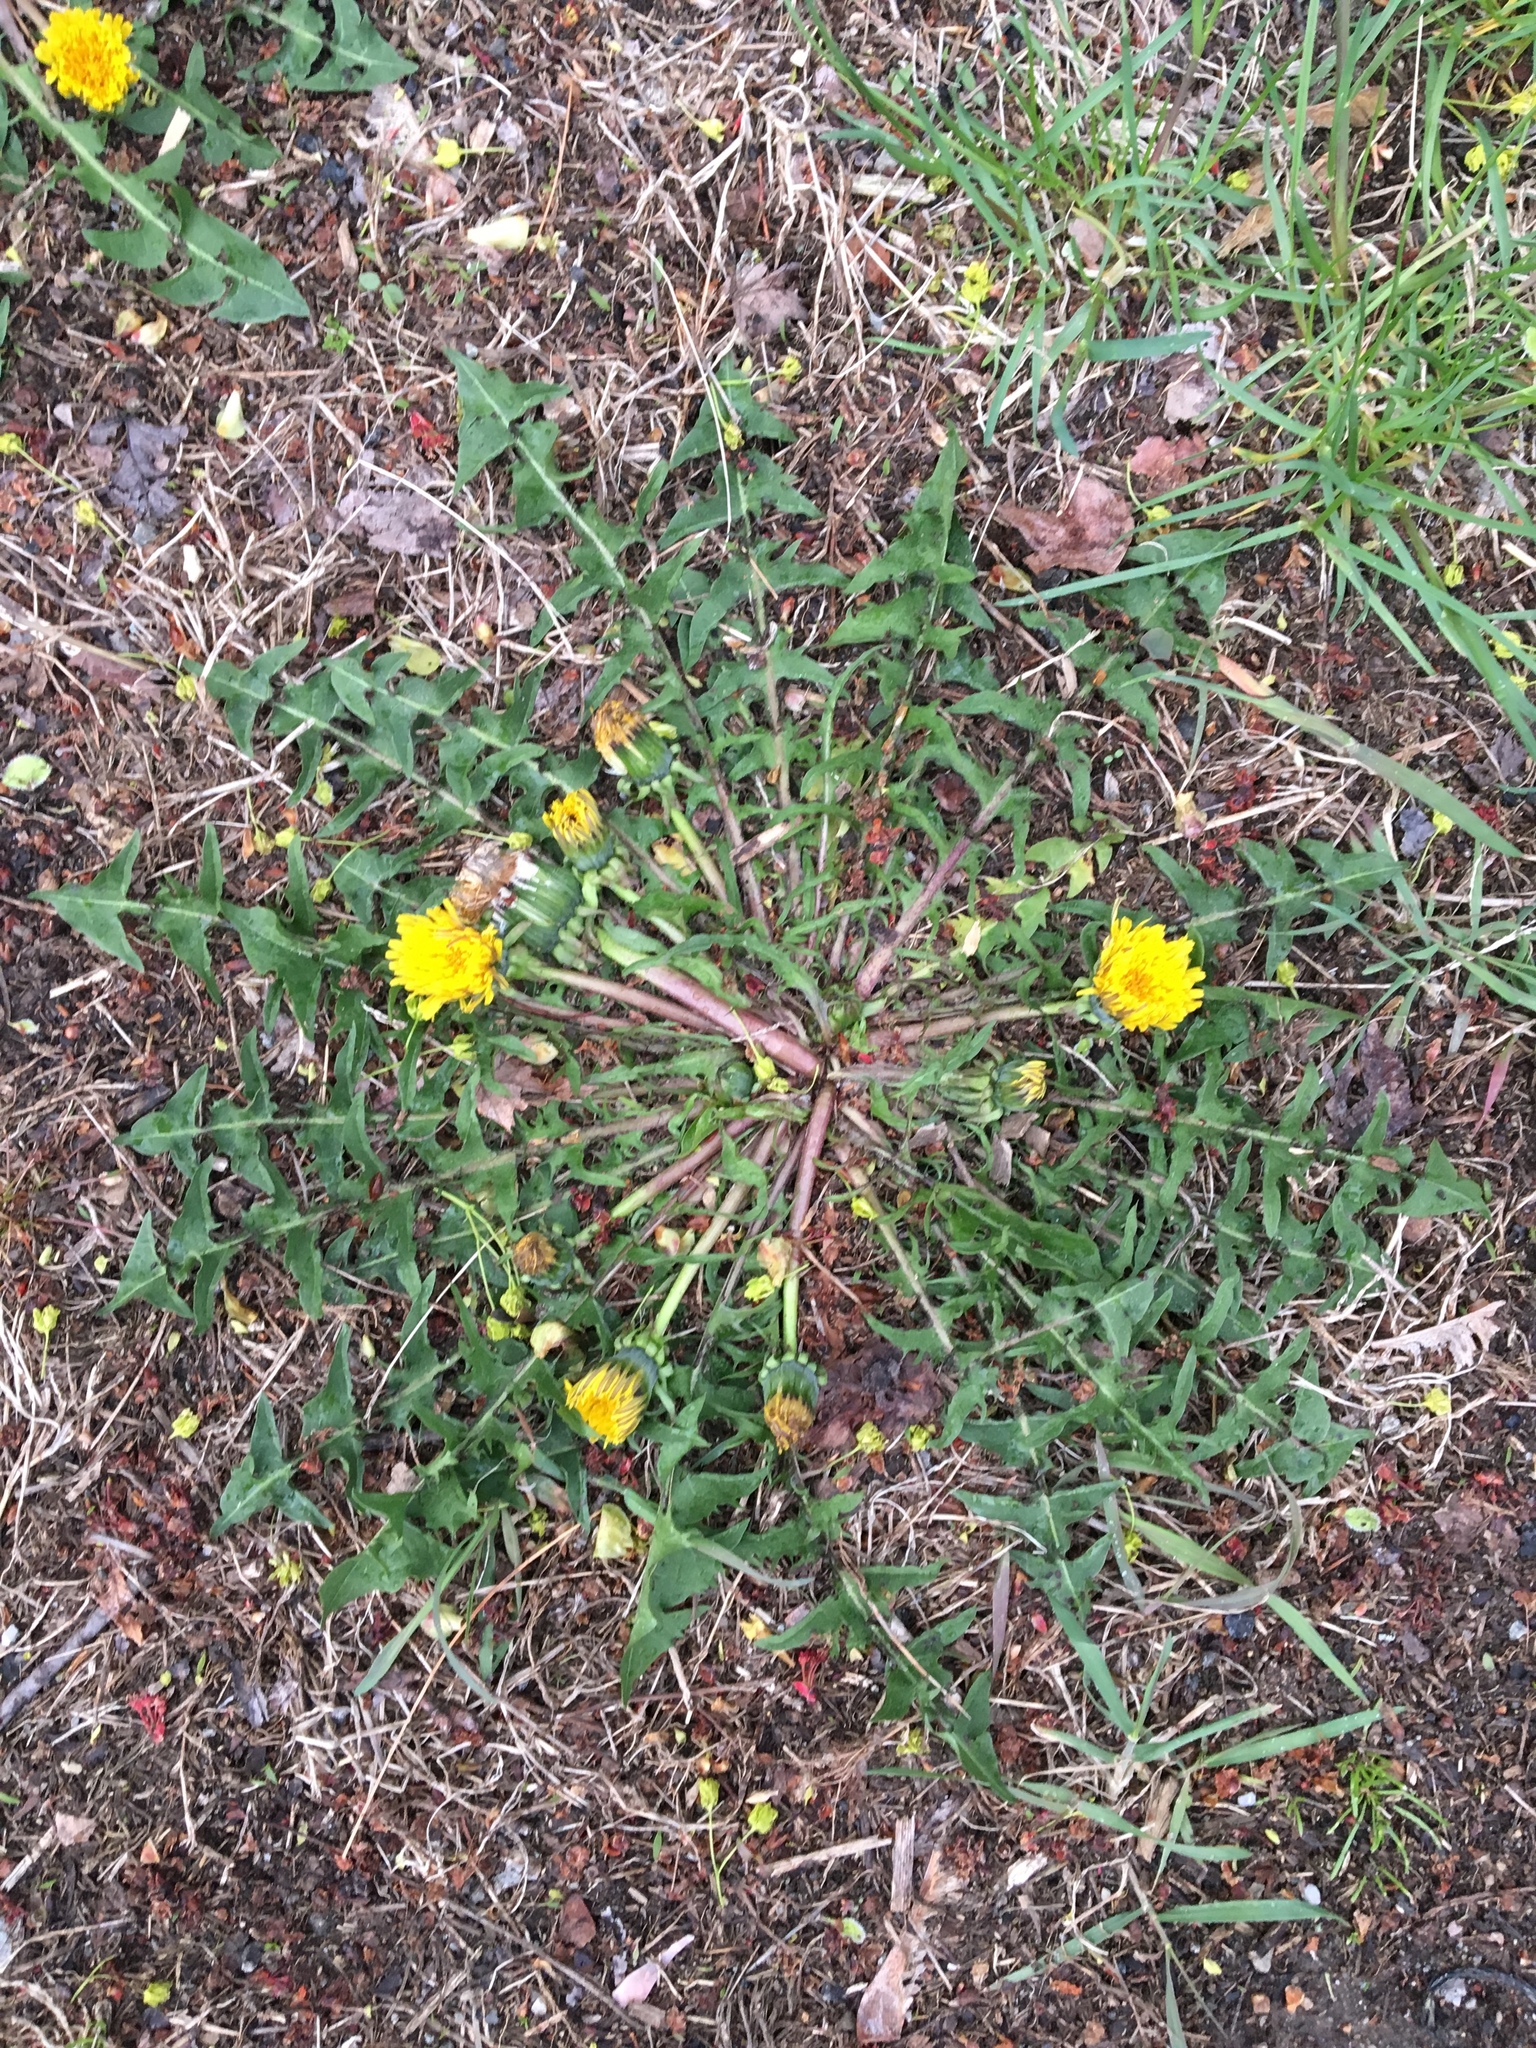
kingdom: Plantae
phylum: Tracheophyta
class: Magnoliopsida
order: Asterales
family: Asteraceae
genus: Taraxacum
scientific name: Taraxacum officinale
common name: Common dandelion
